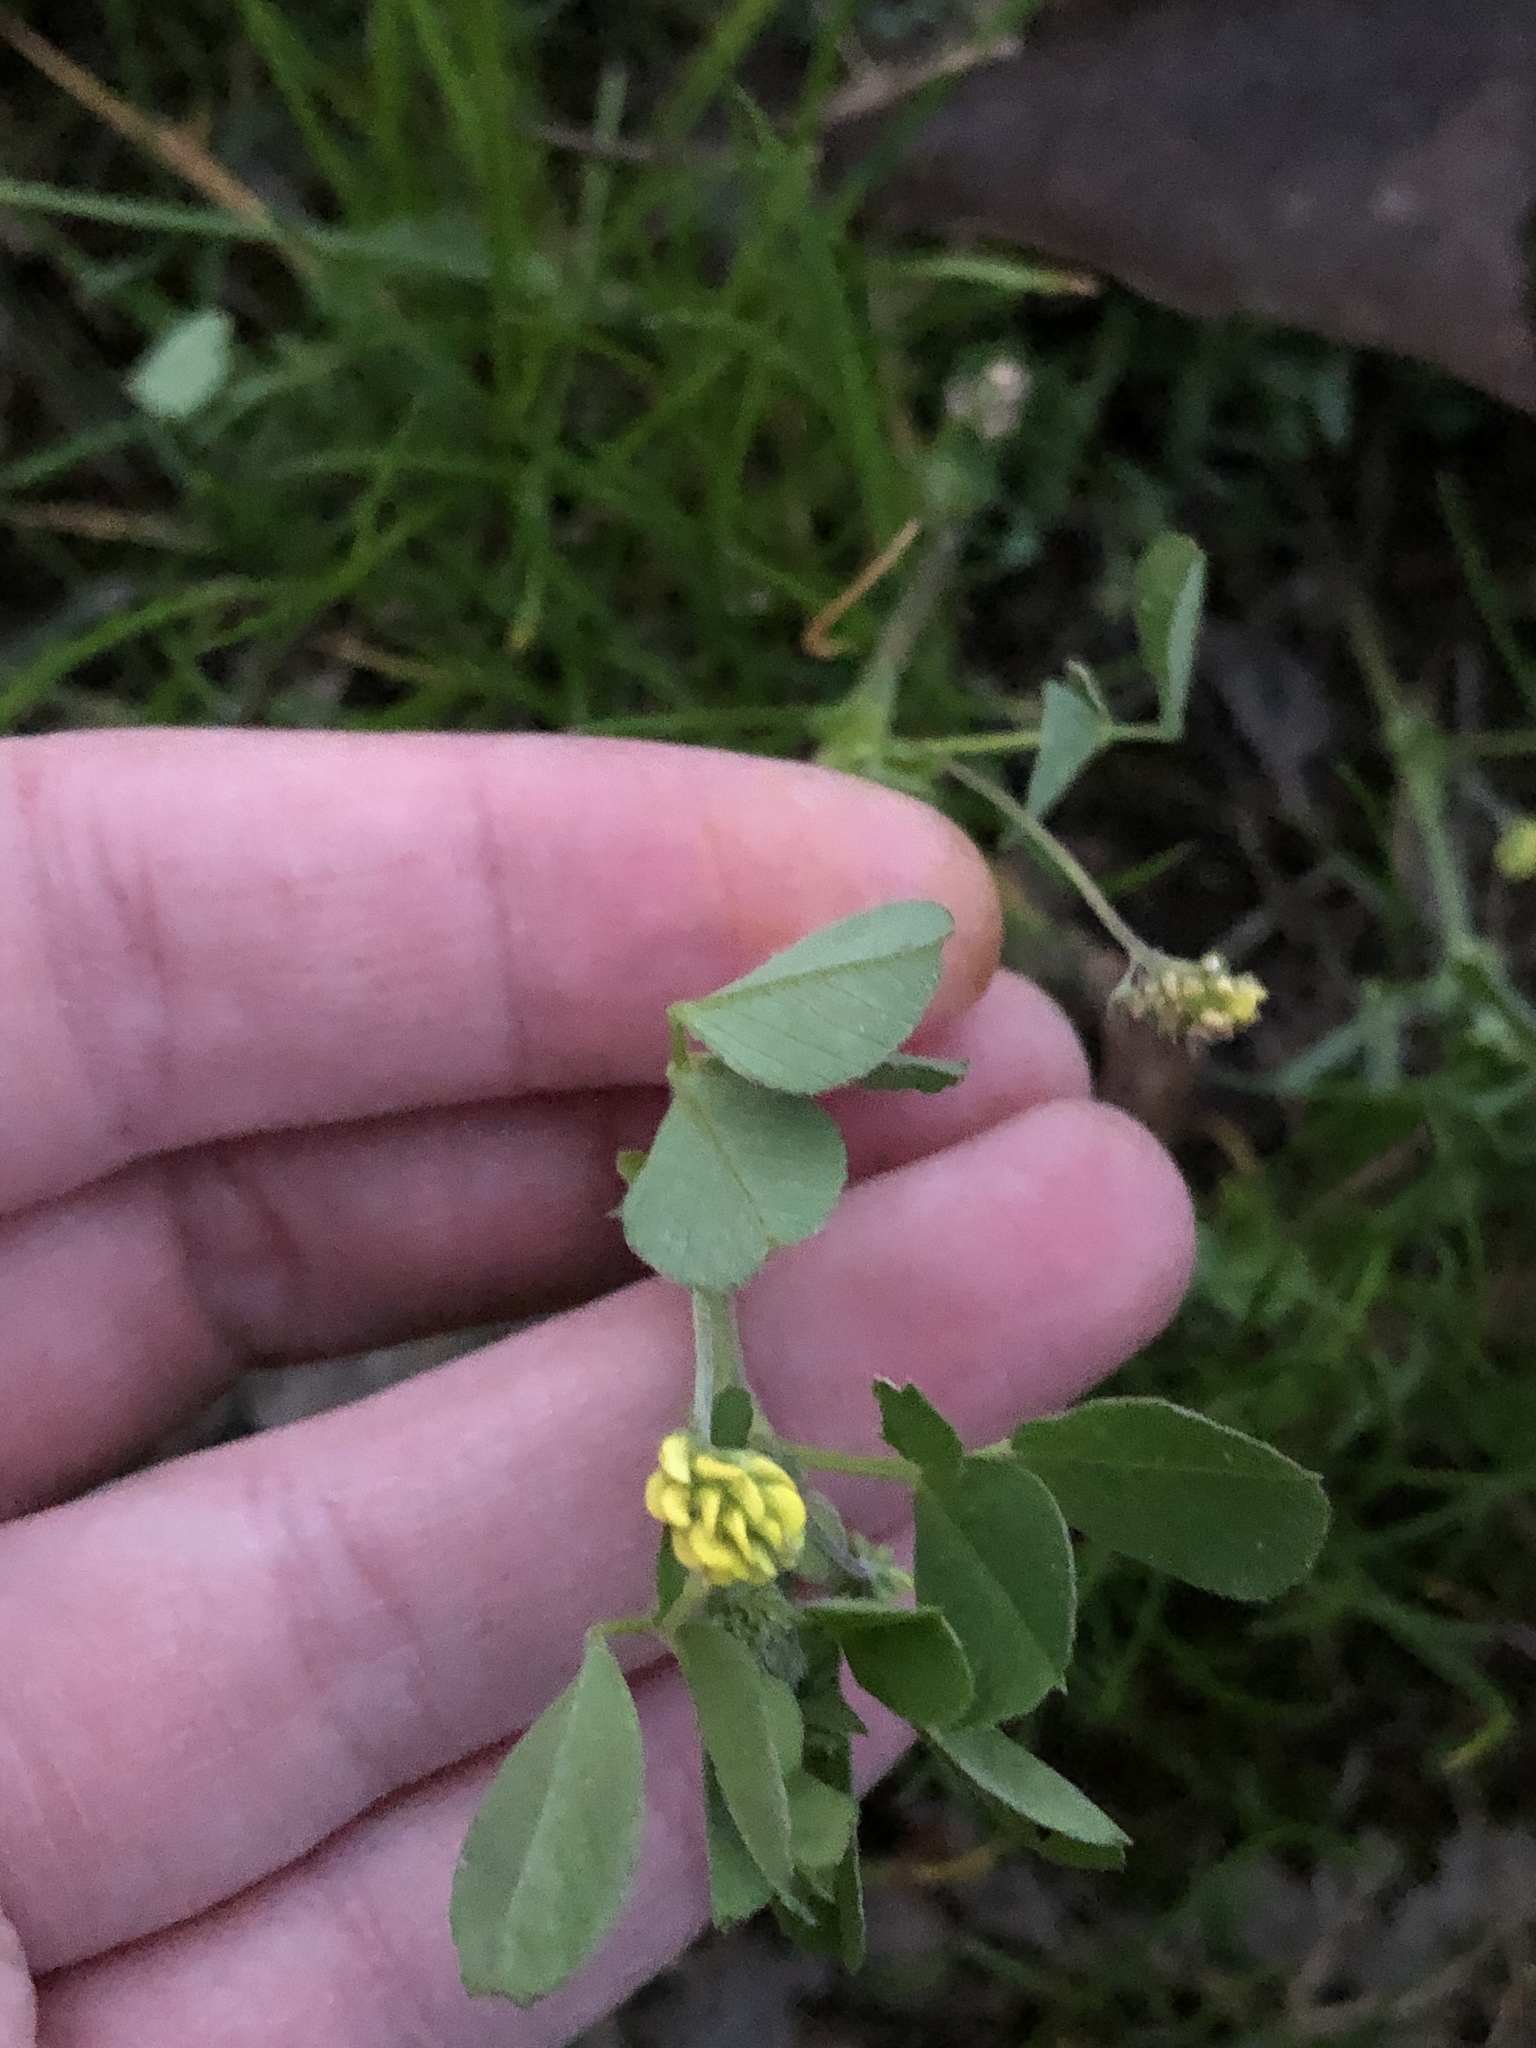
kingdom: Plantae
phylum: Tracheophyta
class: Magnoliopsida
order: Fabales
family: Fabaceae
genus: Medicago
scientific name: Medicago lupulina
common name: Black medick
